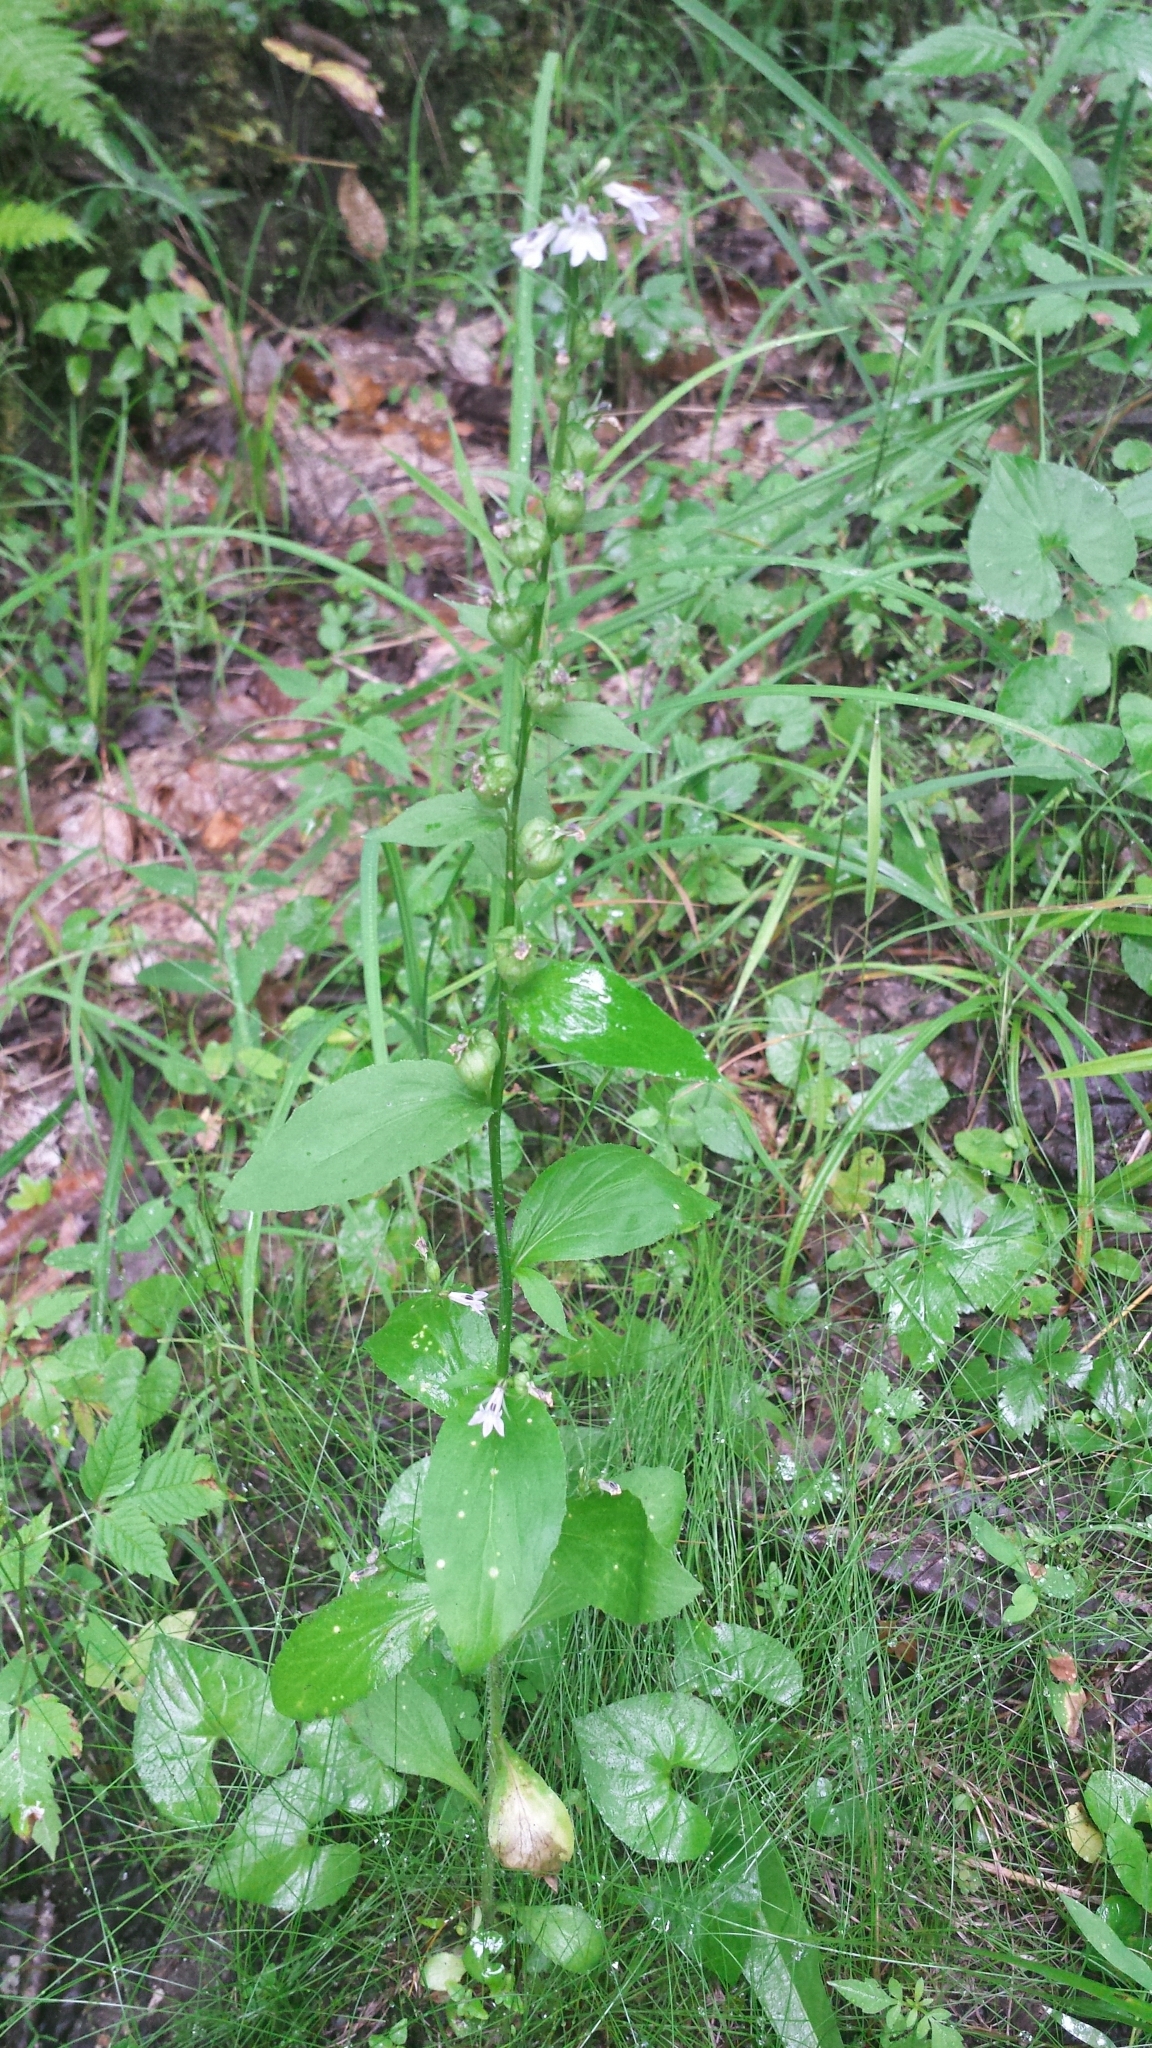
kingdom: Plantae
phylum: Tracheophyta
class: Magnoliopsida
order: Asterales
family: Campanulaceae
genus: Lobelia
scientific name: Lobelia inflata
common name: Indian tobacco
